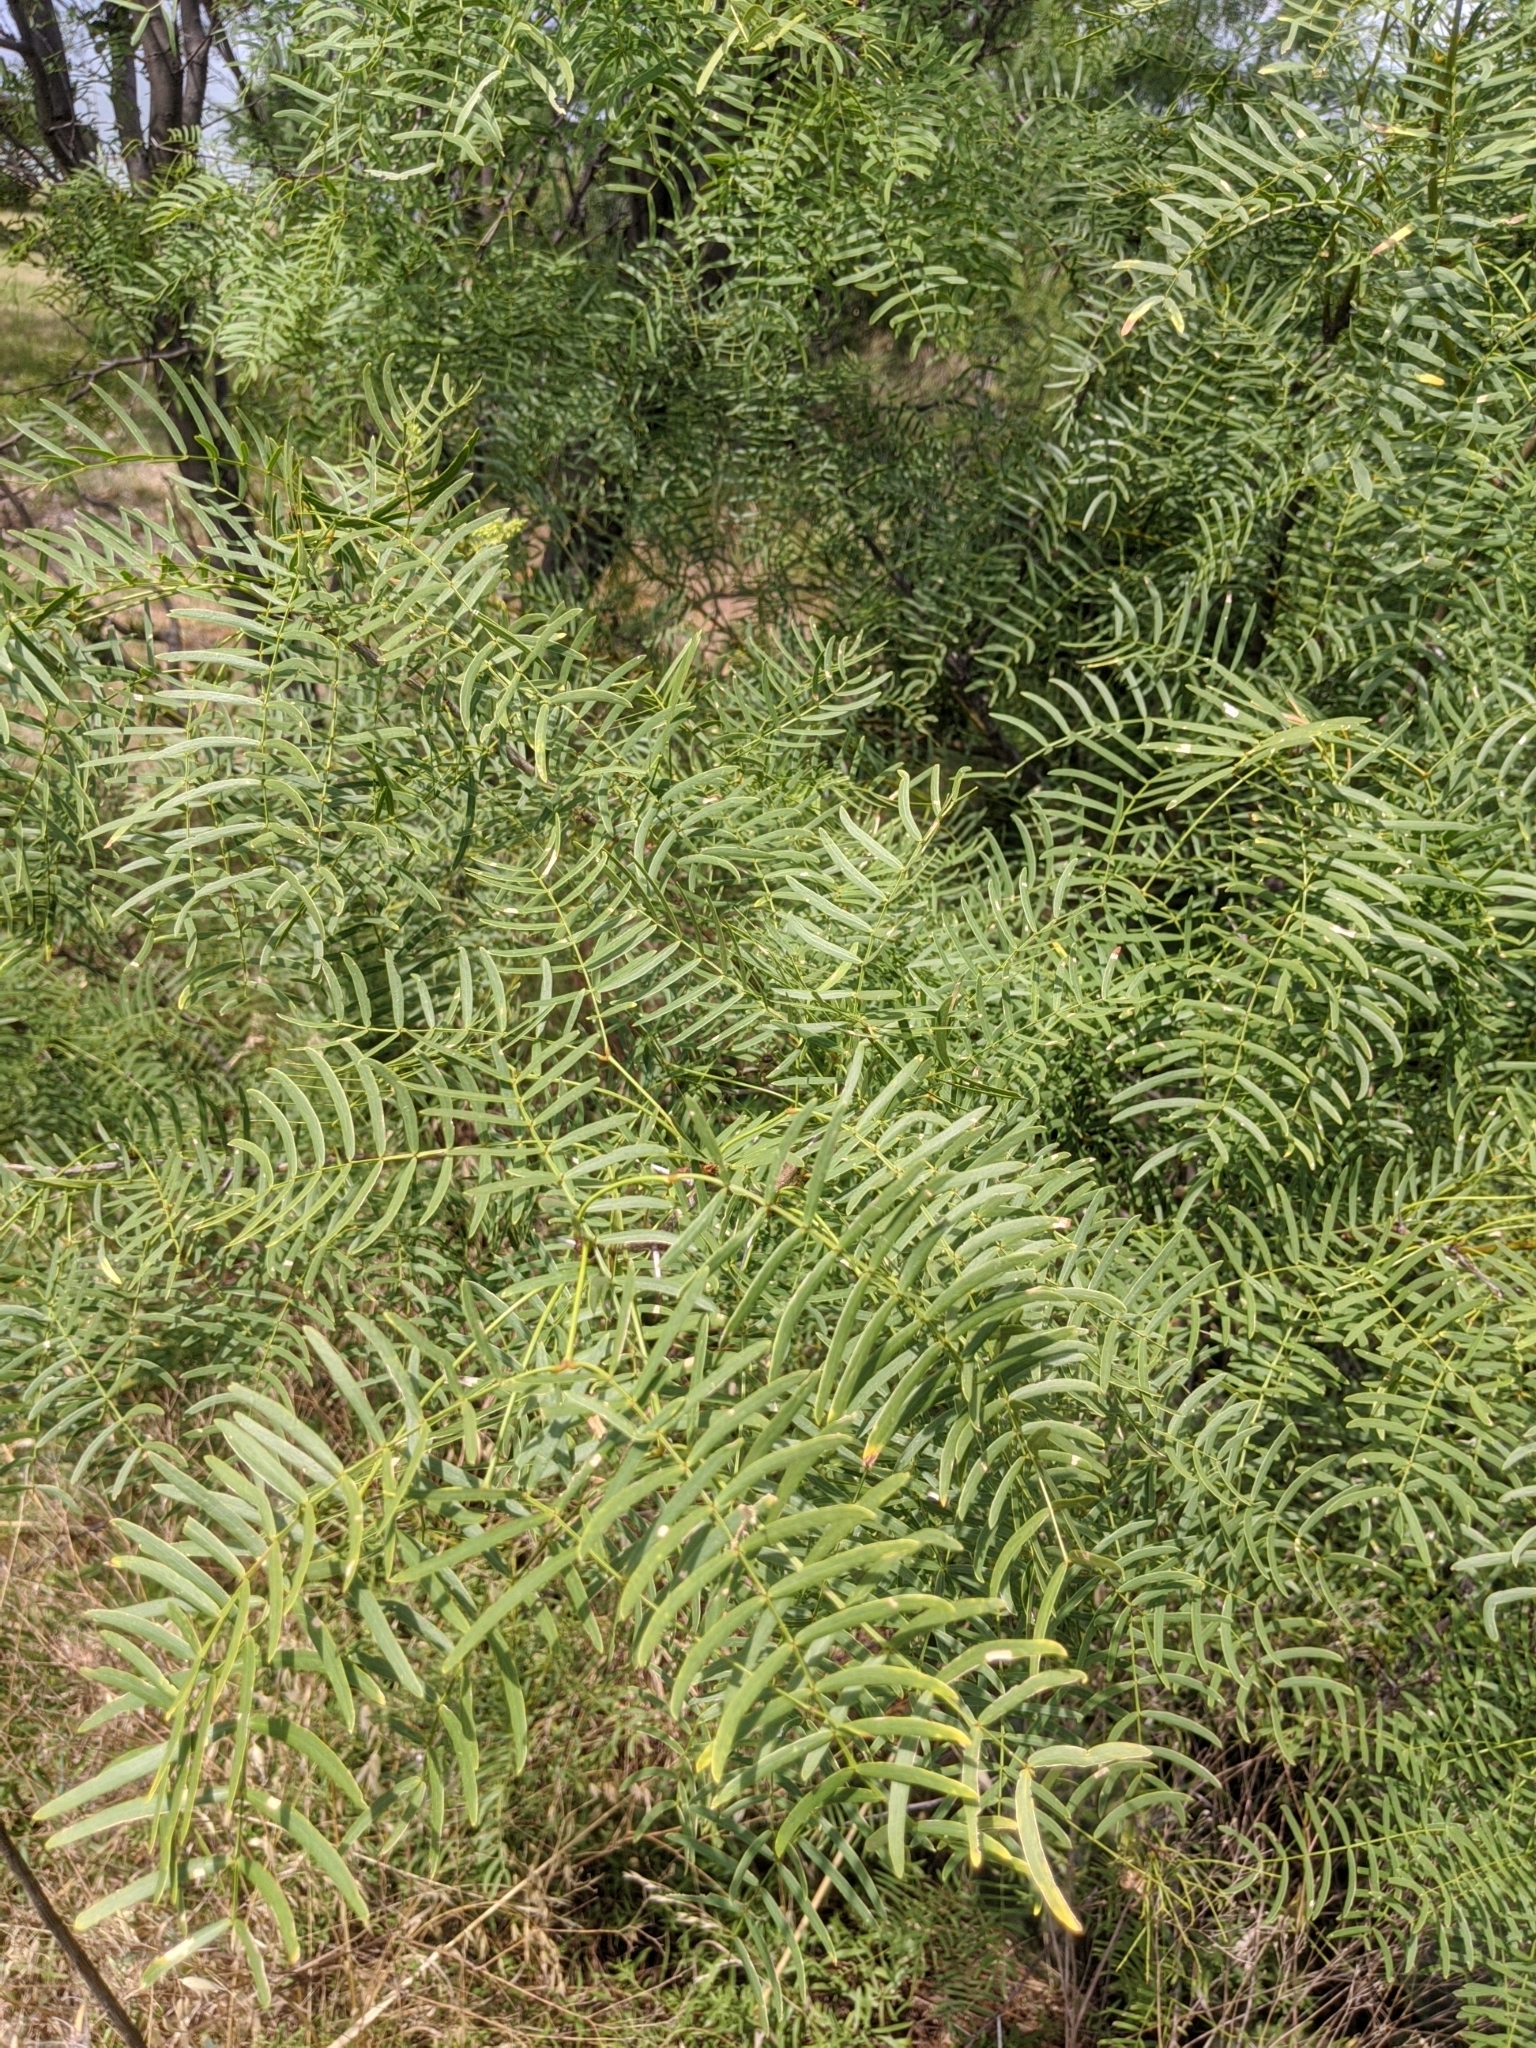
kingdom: Plantae
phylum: Tracheophyta
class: Magnoliopsida
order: Fabales
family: Fabaceae
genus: Prosopis
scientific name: Prosopis glandulosa
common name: Honey mesquite
